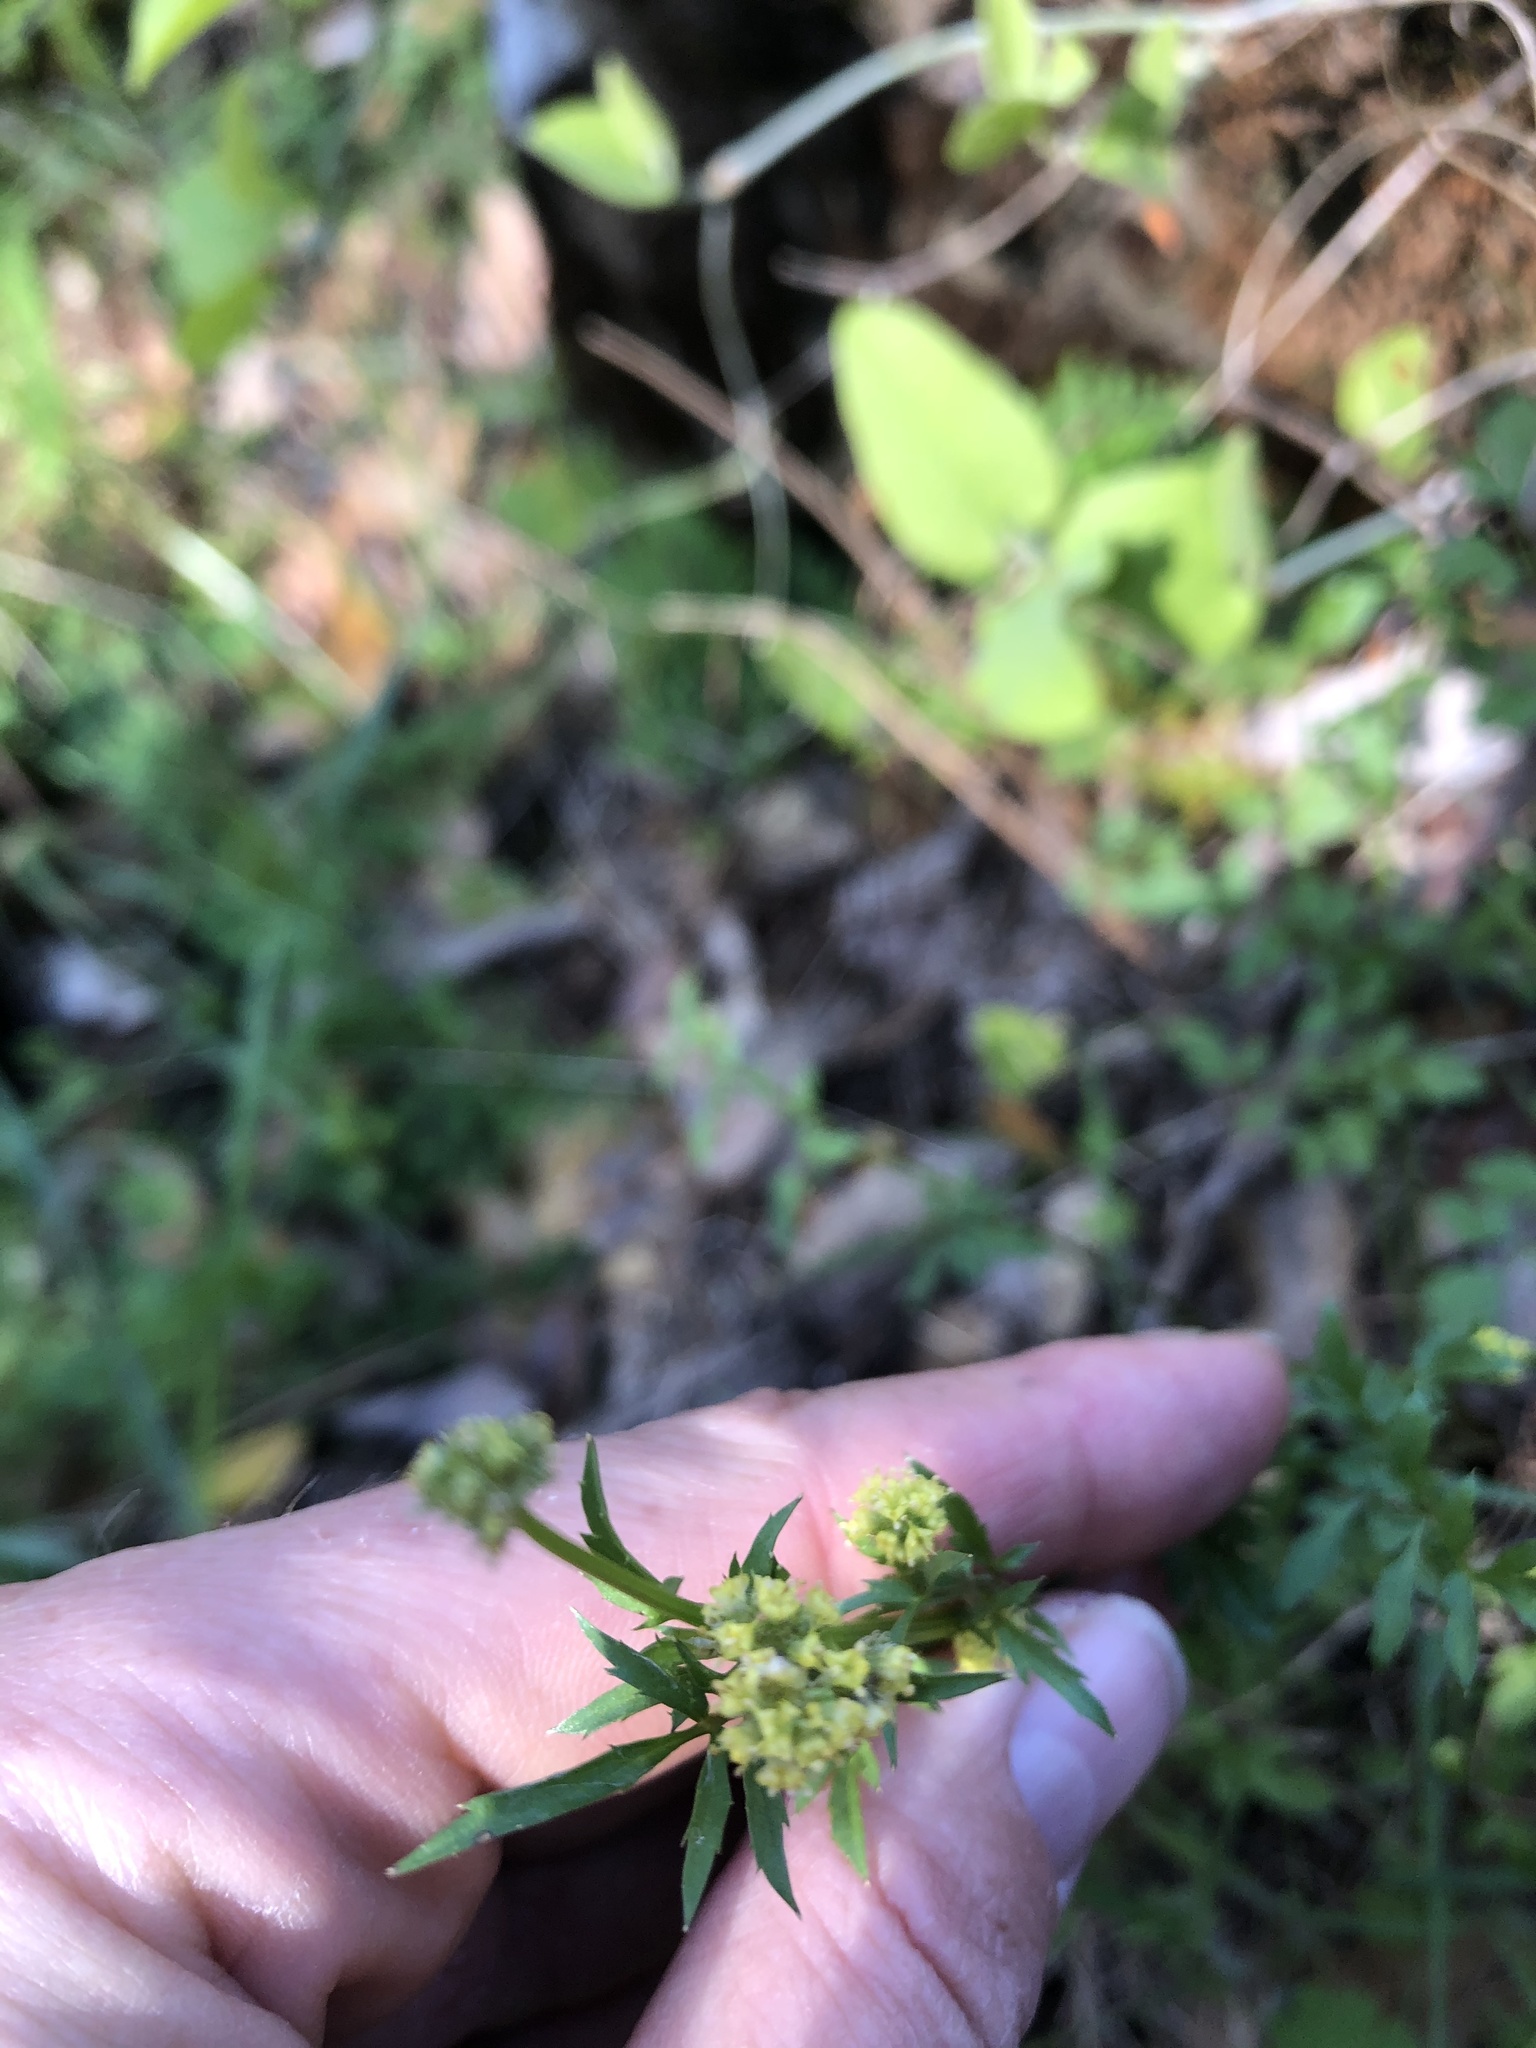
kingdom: Plantae
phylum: Tracheophyta
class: Magnoliopsida
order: Apiales
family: Apiaceae
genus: Sanicula
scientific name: Sanicula bipinnata
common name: Poison sanicle
